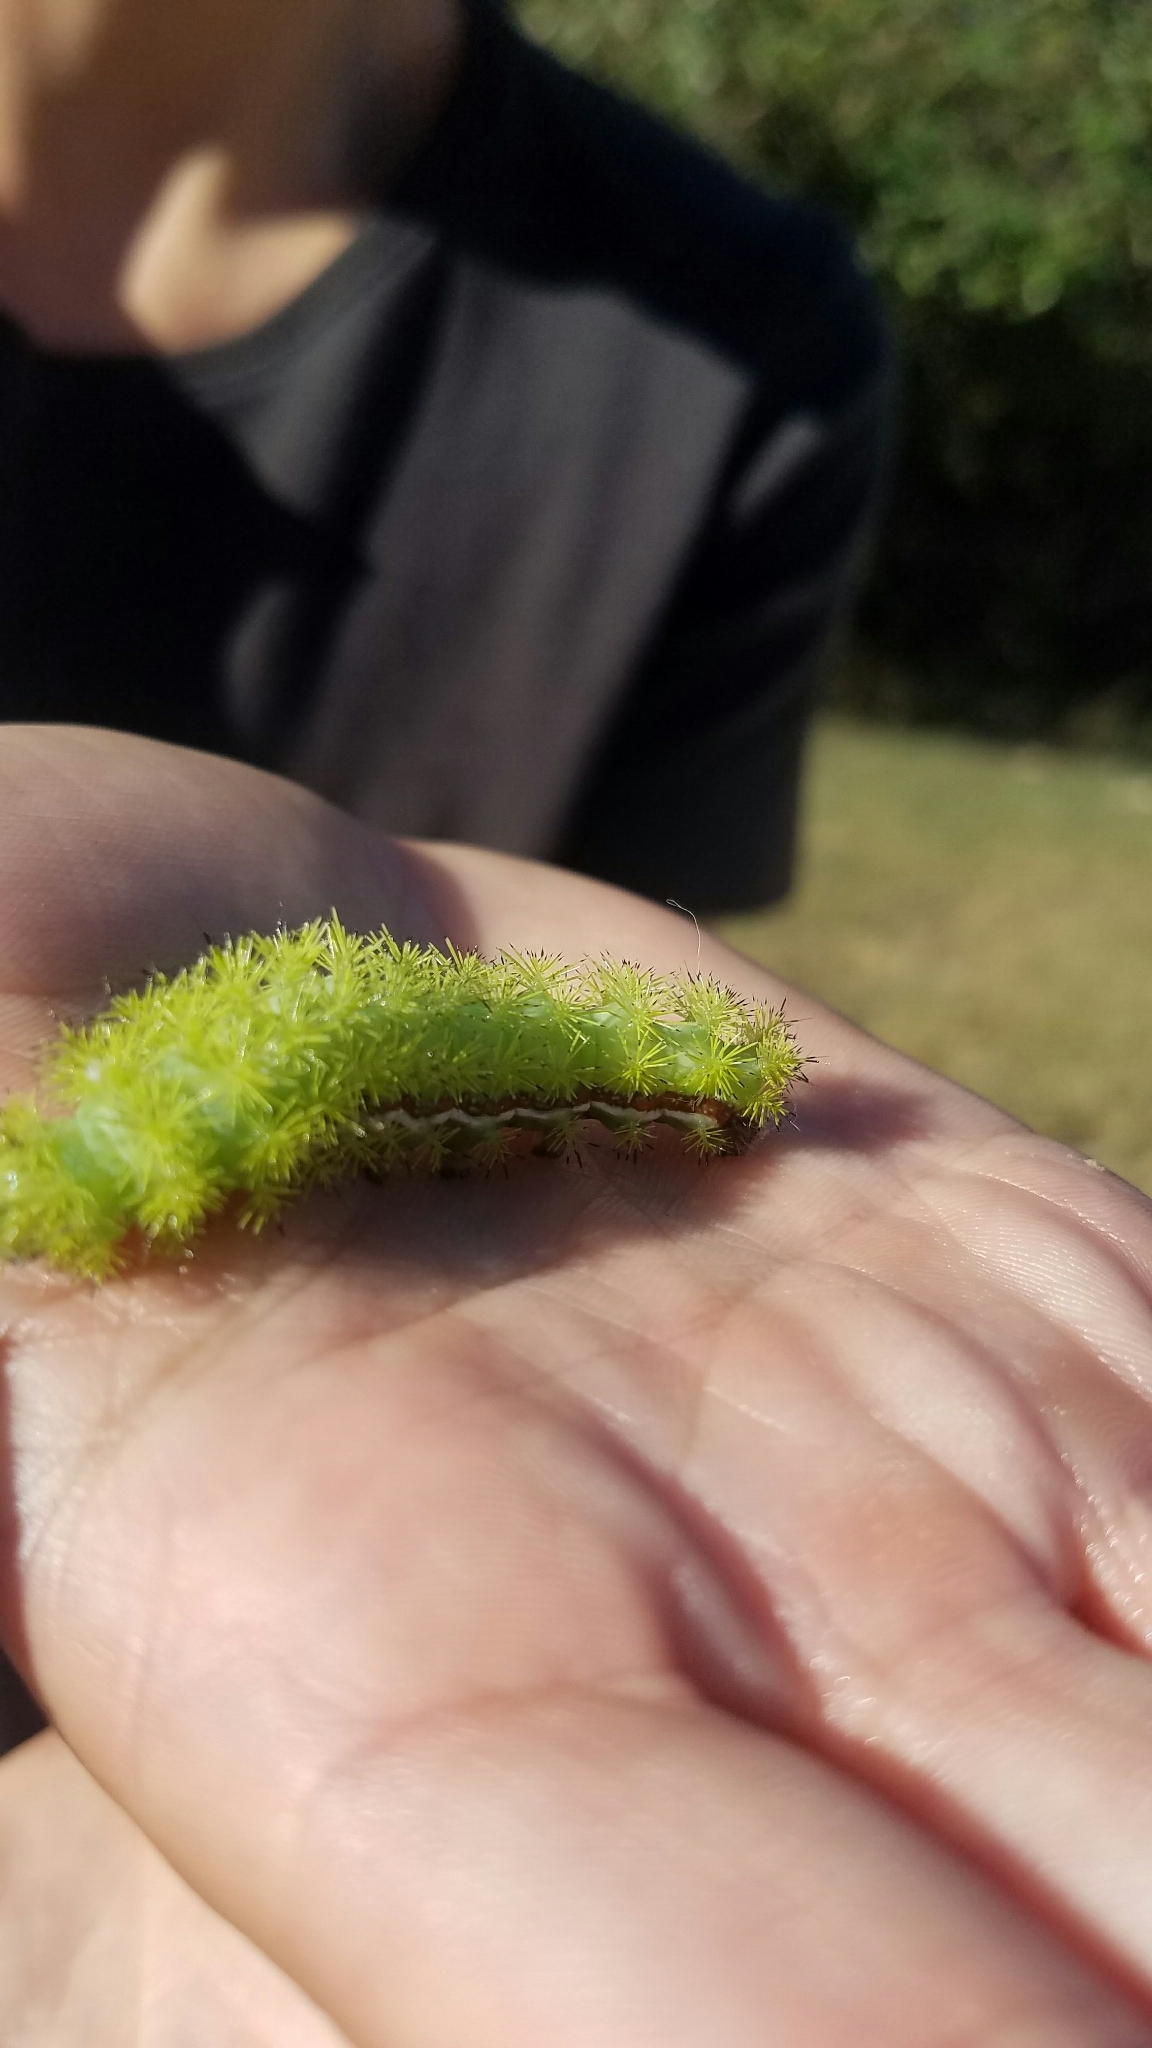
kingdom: Animalia
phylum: Arthropoda
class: Insecta
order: Lepidoptera
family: Saturniidae
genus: Automeris
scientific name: Automeris io
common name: Io moth
